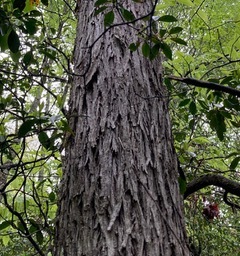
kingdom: Plantae
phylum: Tracheophyta
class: Magnoliopsida
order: Fagales
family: Juglandaceae
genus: Carya
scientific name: Carya ovata
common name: Shagbark hickory
